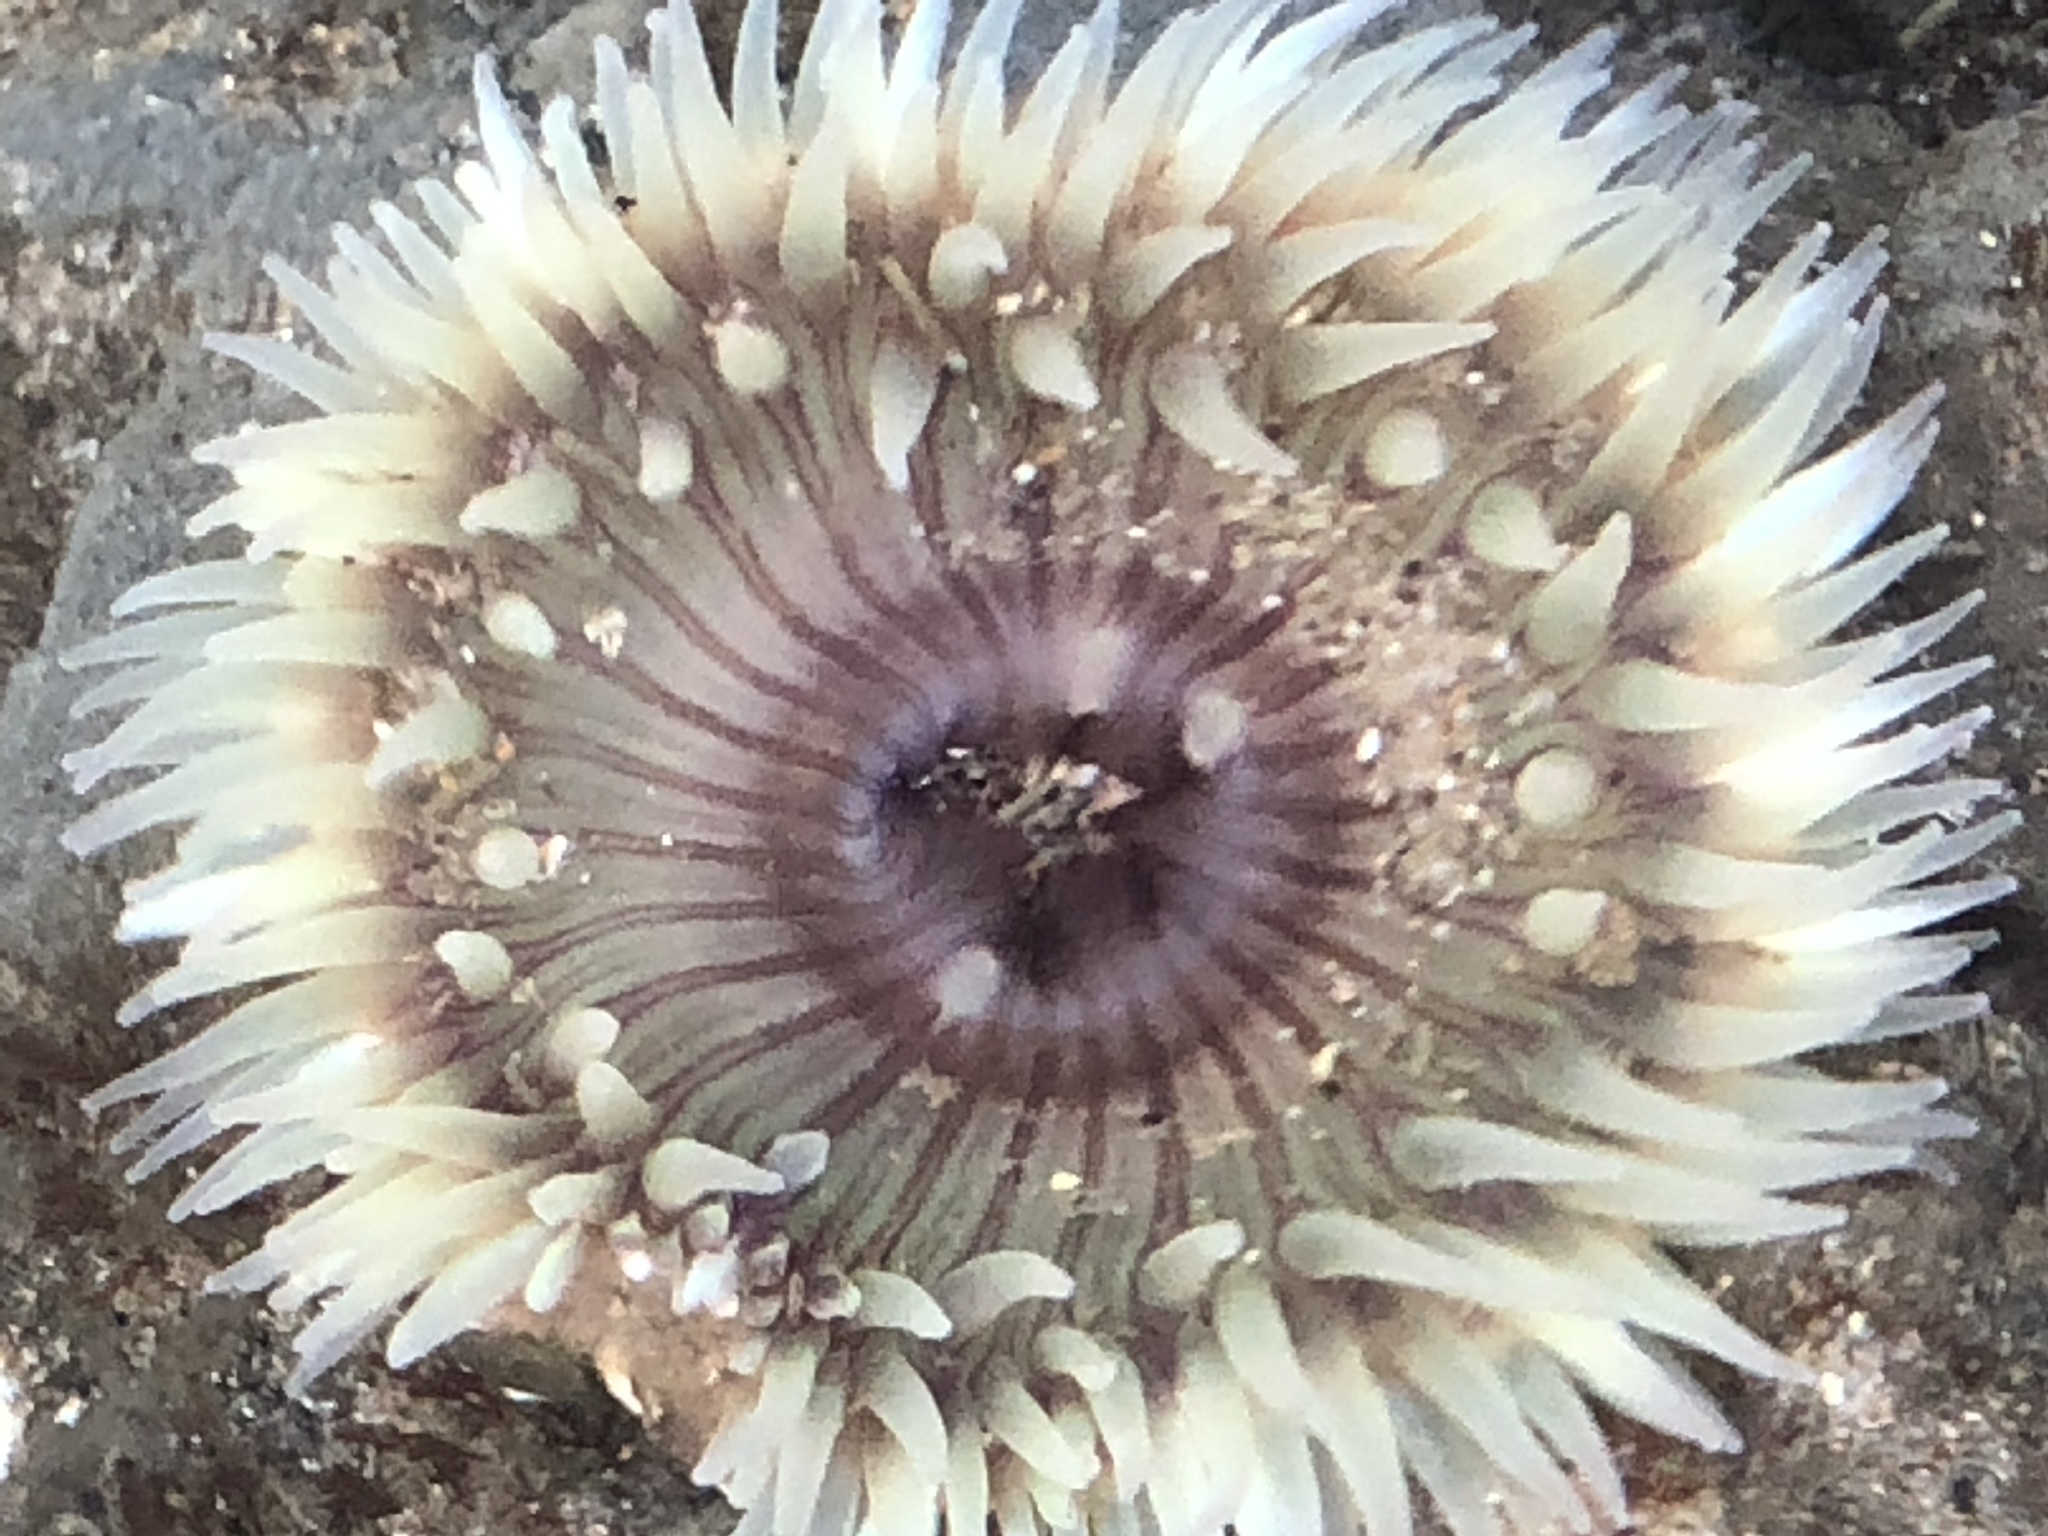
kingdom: Animalia
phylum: Cnidaria
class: Anthozoa
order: Actiniaria
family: Actiniidae
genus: Anthopleura
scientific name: Anthopleura sola
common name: Sun anemone
